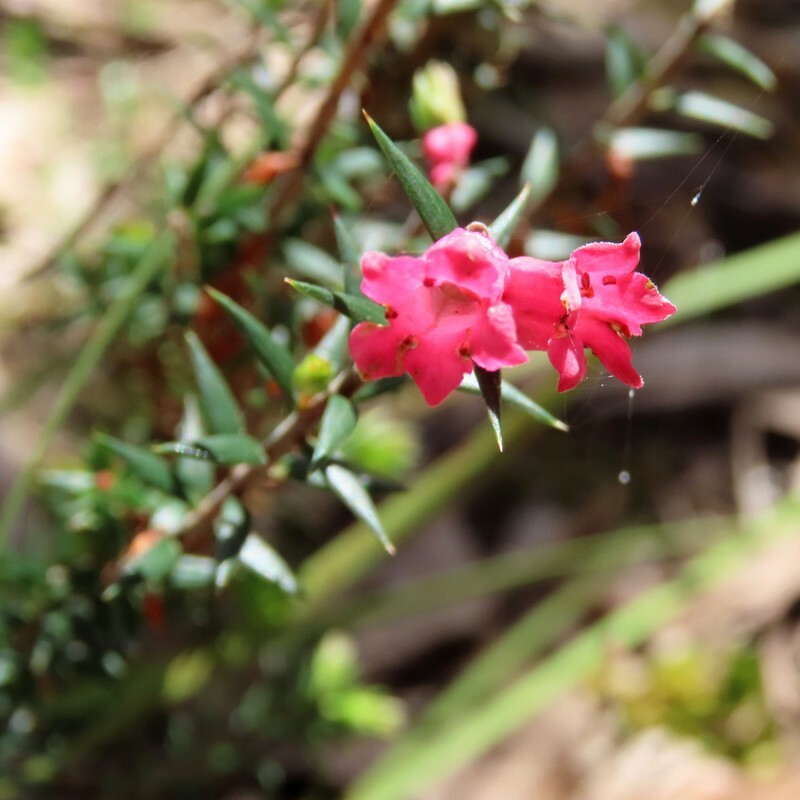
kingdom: Plantae
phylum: Tracheophyta
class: Magnoliopsida
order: Ericales
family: Ericaceae
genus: Epacris
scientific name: Epacris impressa
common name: Common-heath
